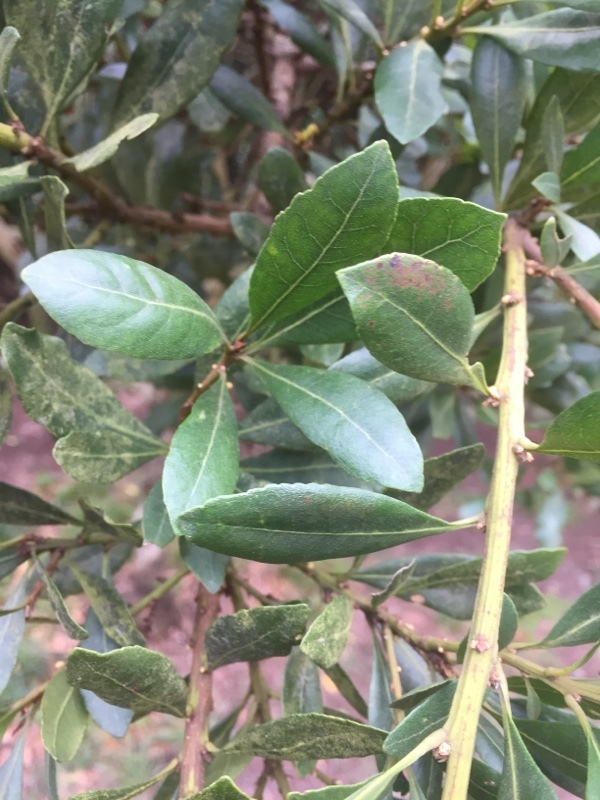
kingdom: Plantae
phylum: Tracheophyta
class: Magnoliopsida
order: Fagales
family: Myricaceae
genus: Morella
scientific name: Morella faya
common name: Firetree
